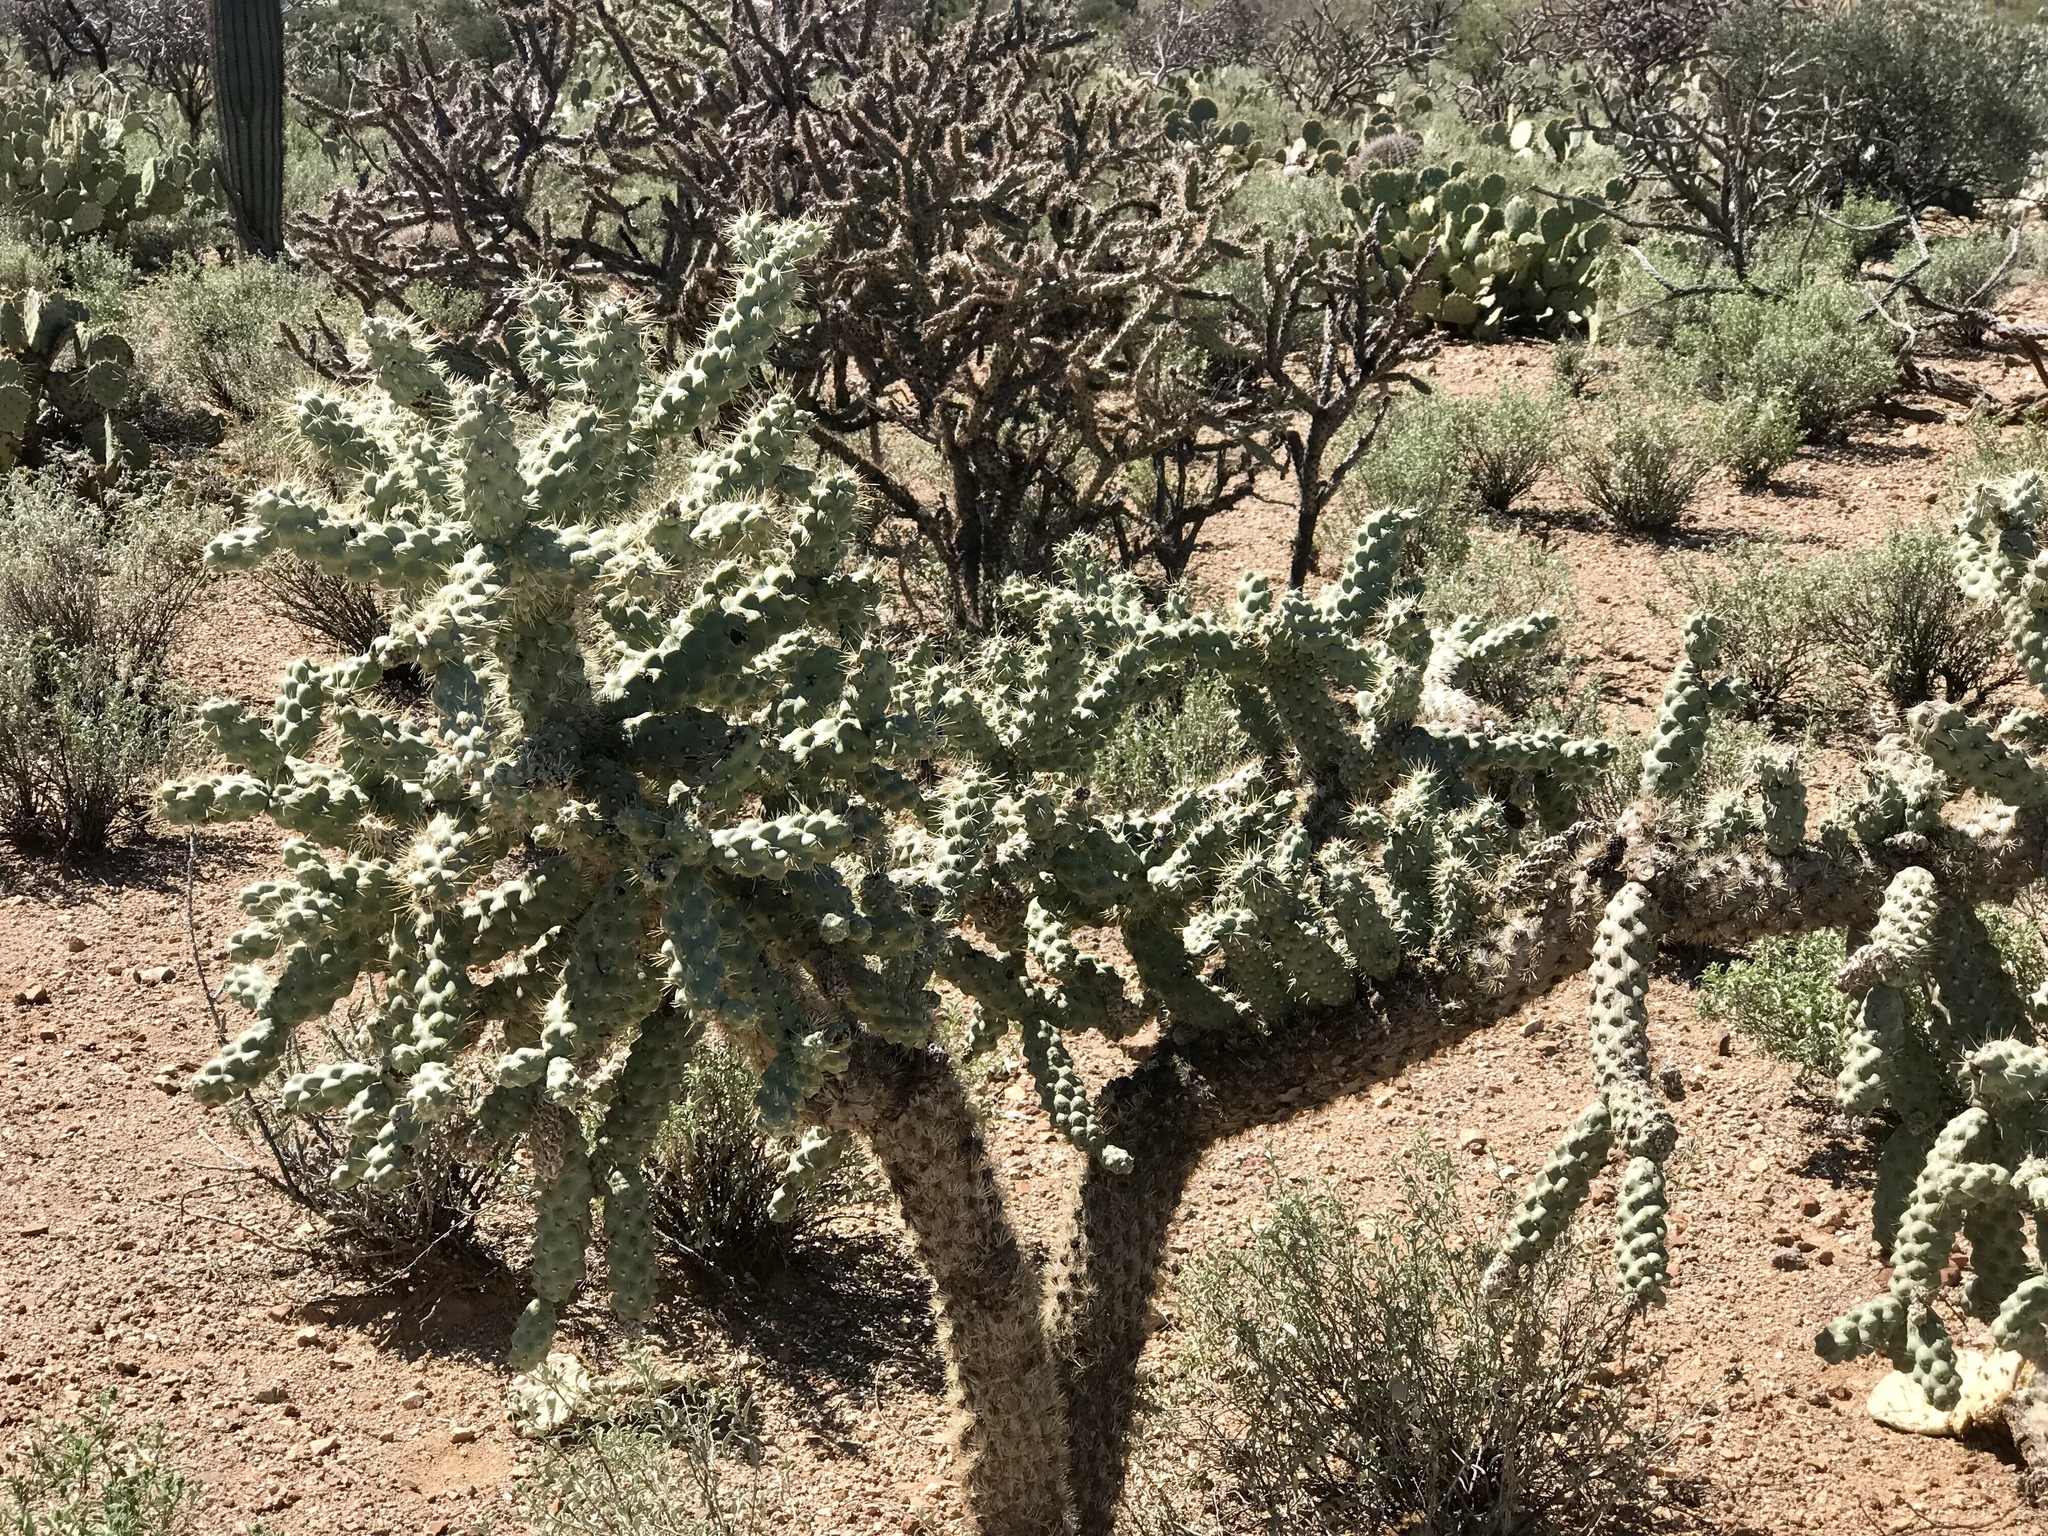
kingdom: Plantae
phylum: Tracheophyta
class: Magnoliopsida
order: Caryophyllales
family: Cactaceae
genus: Cylindropuntia
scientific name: Cylindropuntia fulgida
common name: Jumping cholla
